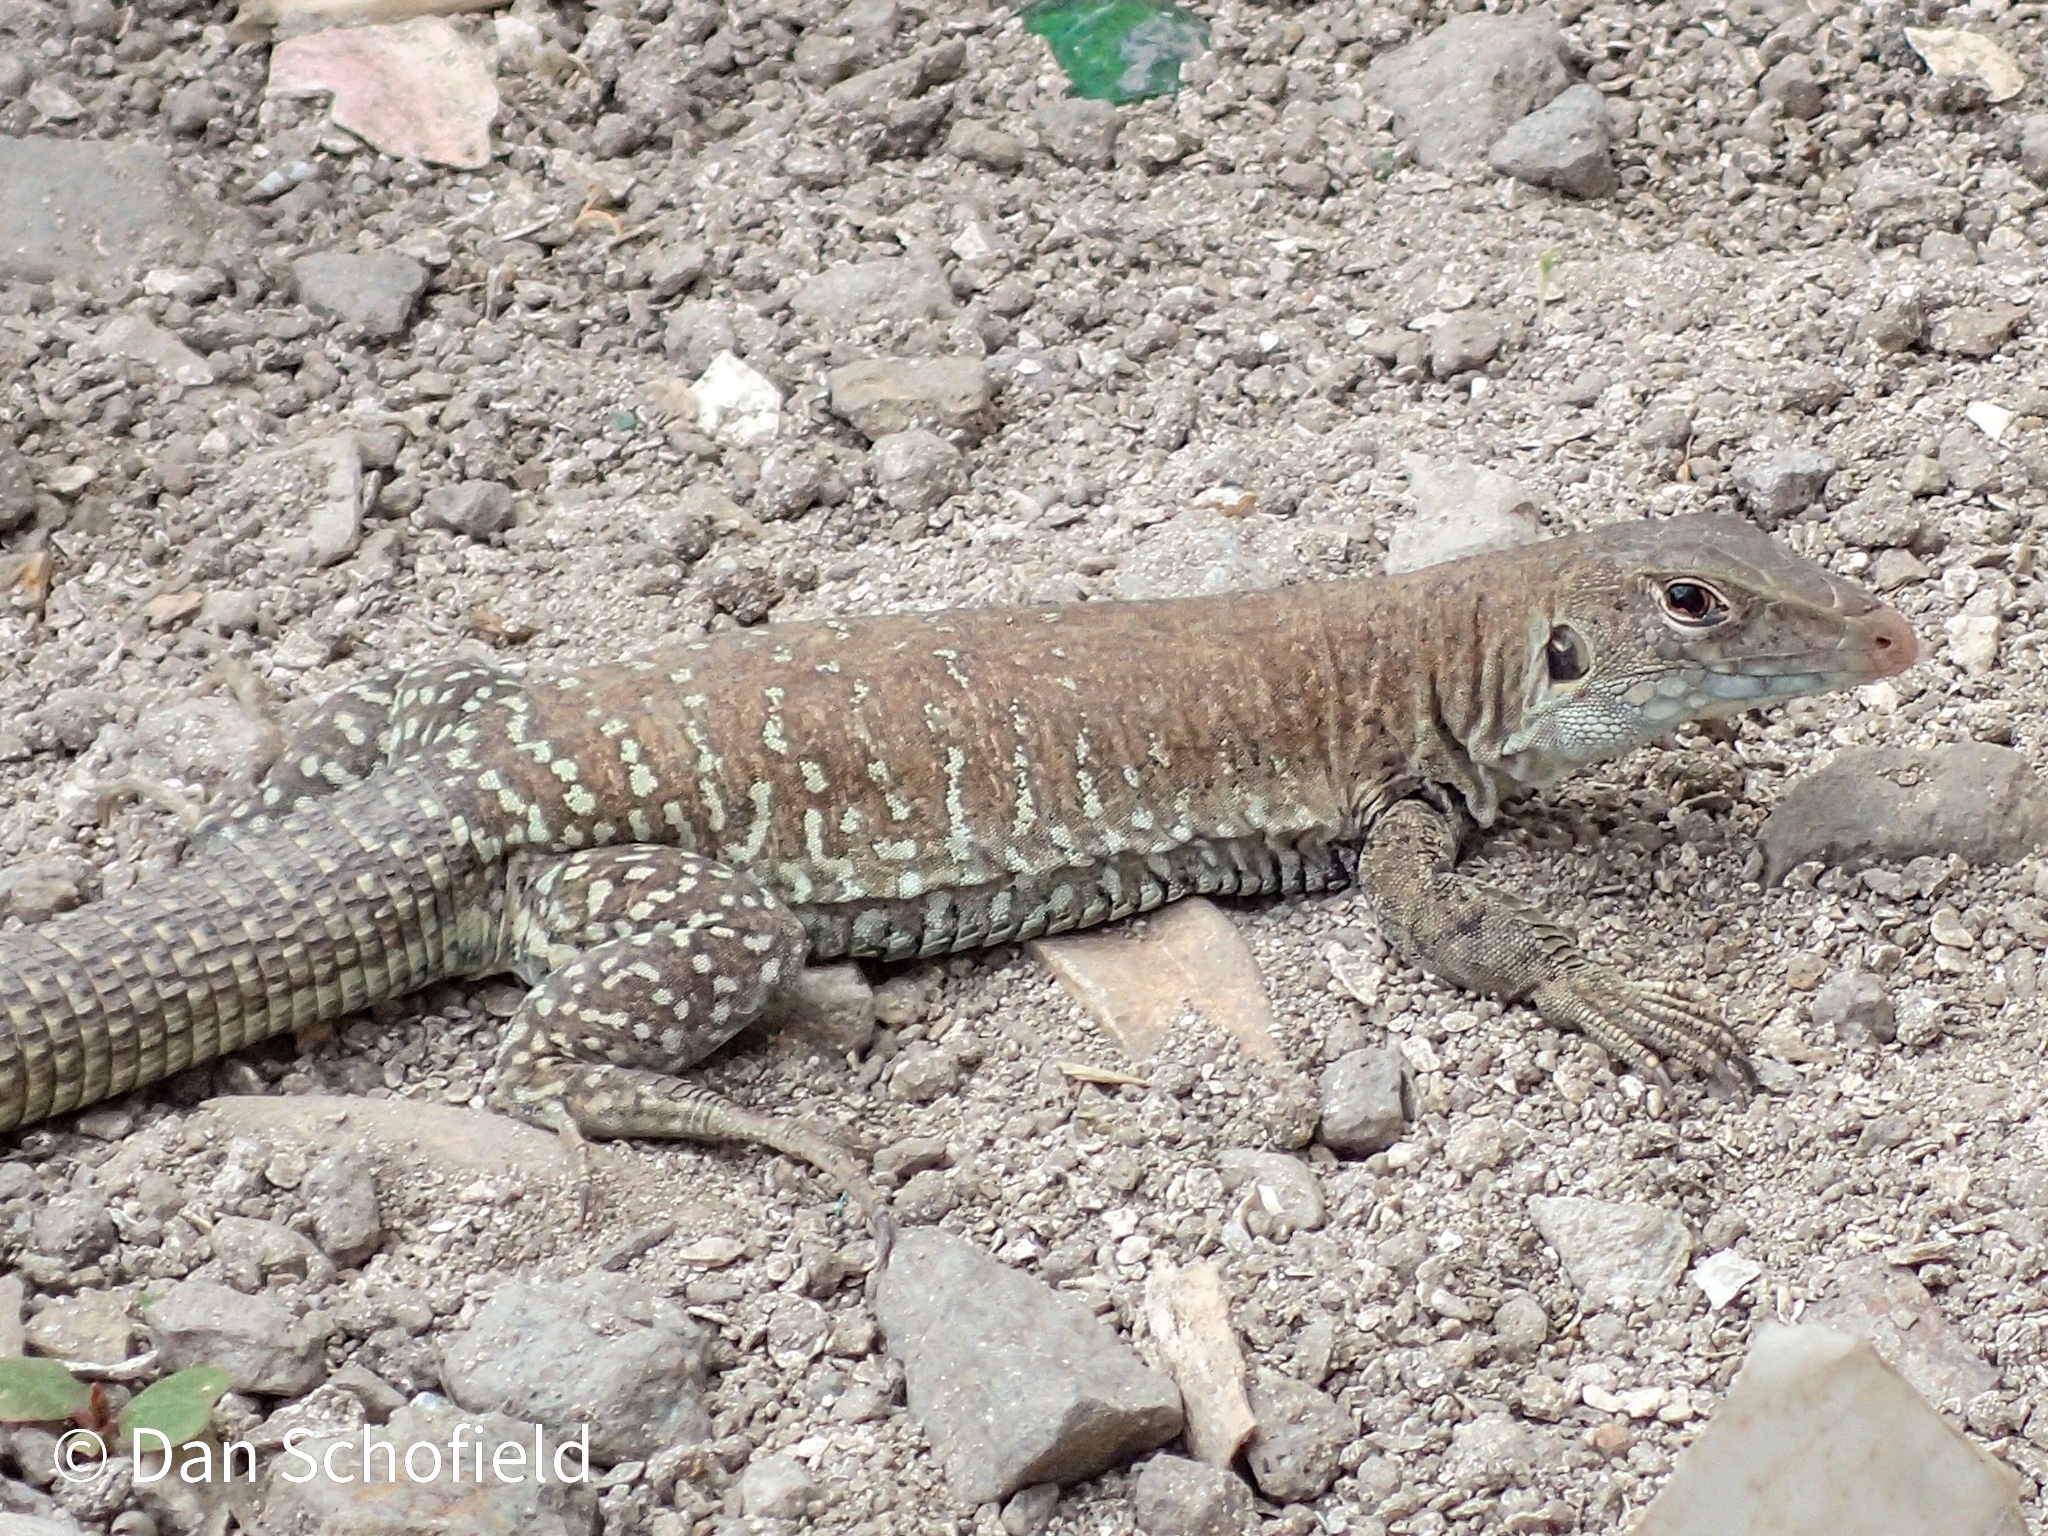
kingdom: Animalia
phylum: Chordata
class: Squamata
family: Teiidae
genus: Pholidoscelis
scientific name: Pholidoscelis plei
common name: Anguilla bank ameiva
